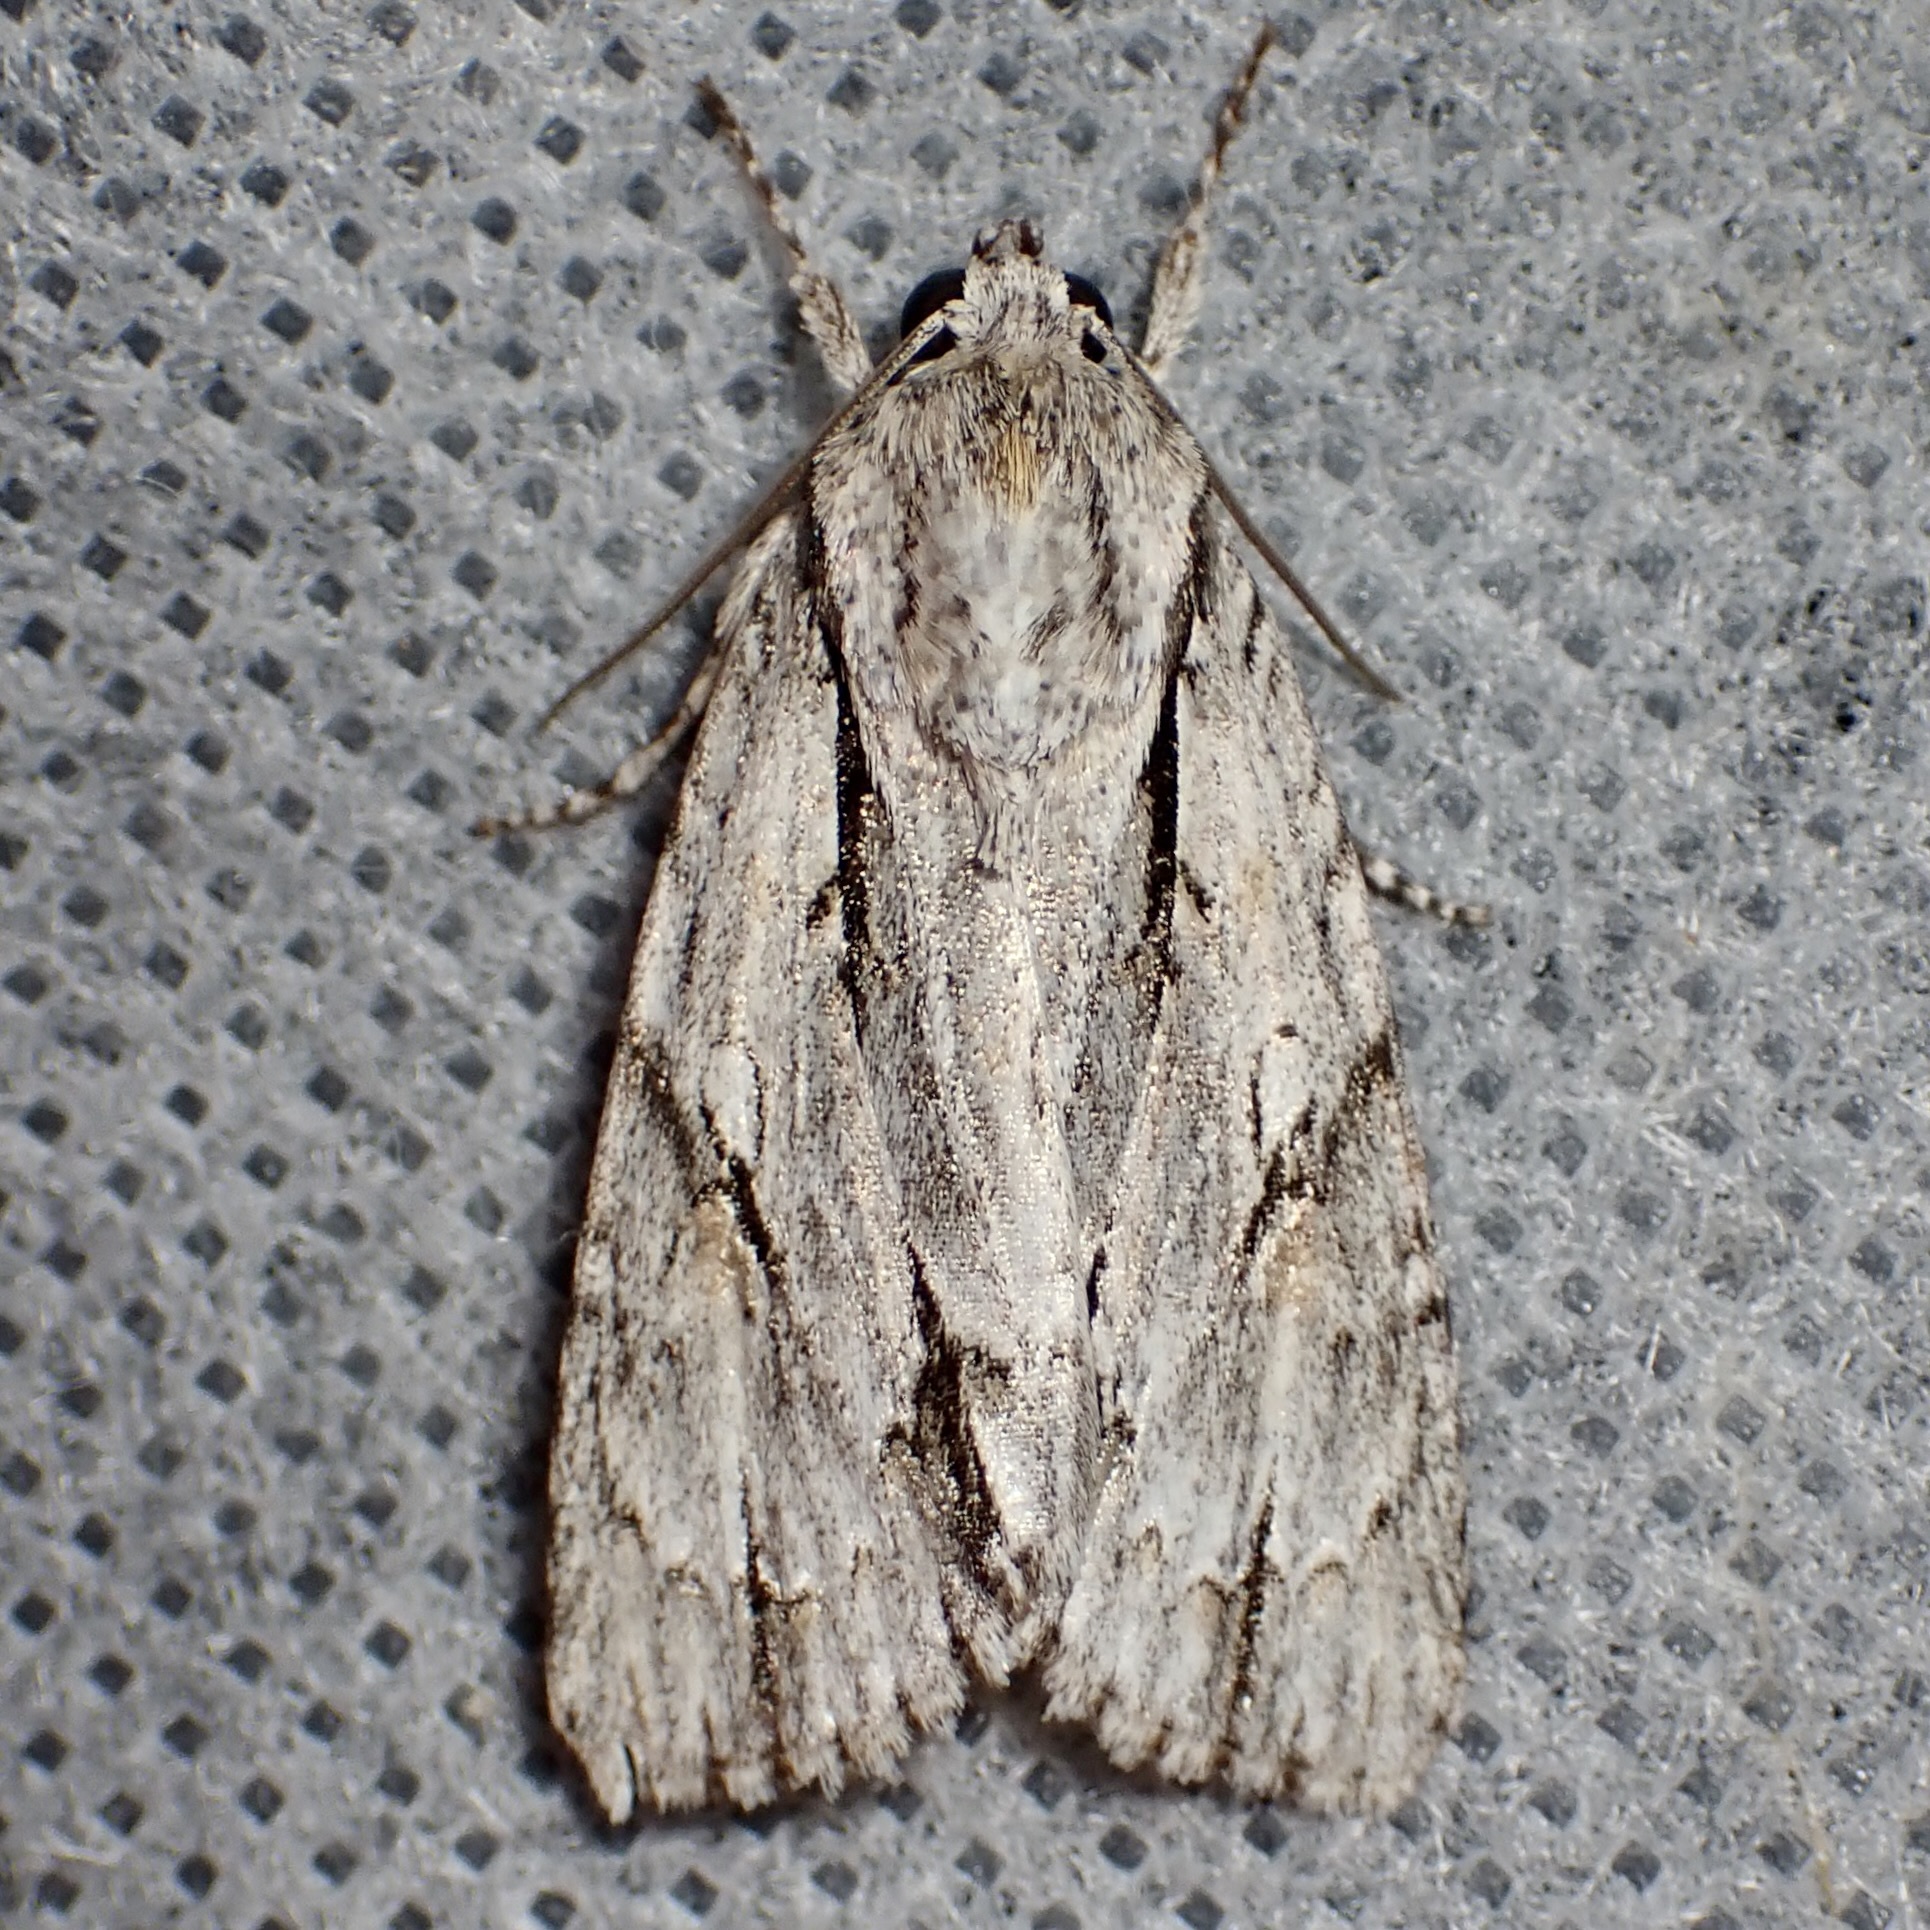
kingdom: Animalia
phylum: Arthropoda
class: Insecta
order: Lepidoptera
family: Noctuidae
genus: Acronicta
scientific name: Acronicta thoracica
